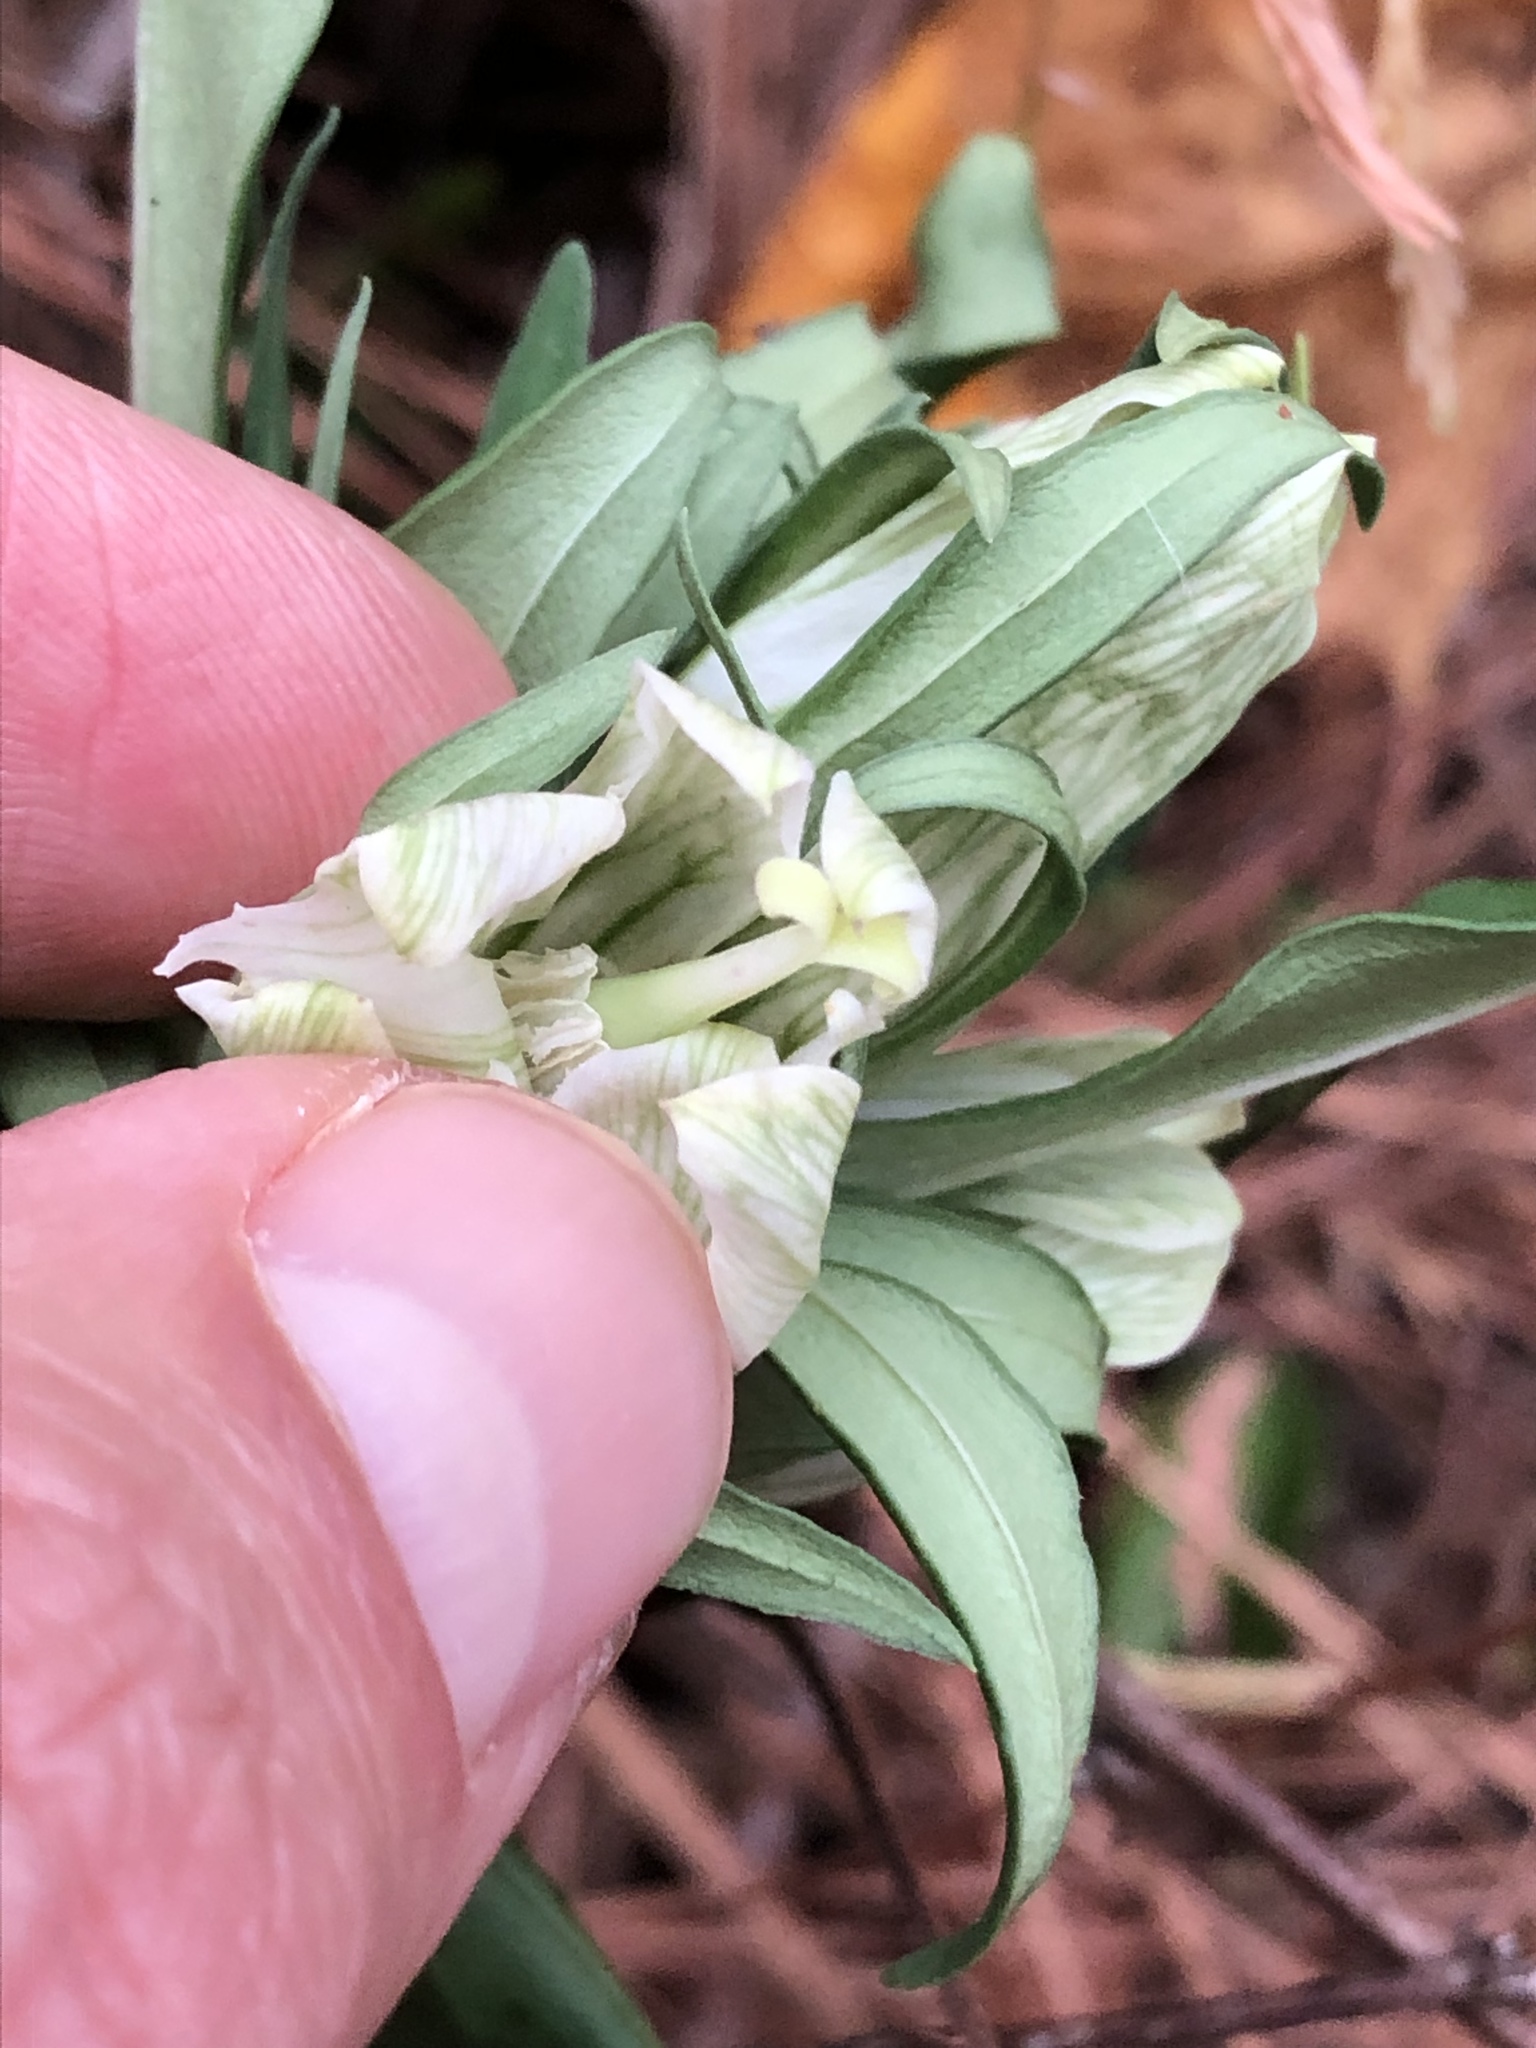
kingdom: Plantae
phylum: Tracheophyta
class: Magnoliopsida
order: Gentianales
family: Gentianaceae
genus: Gentiana
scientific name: Gentiana villosa
